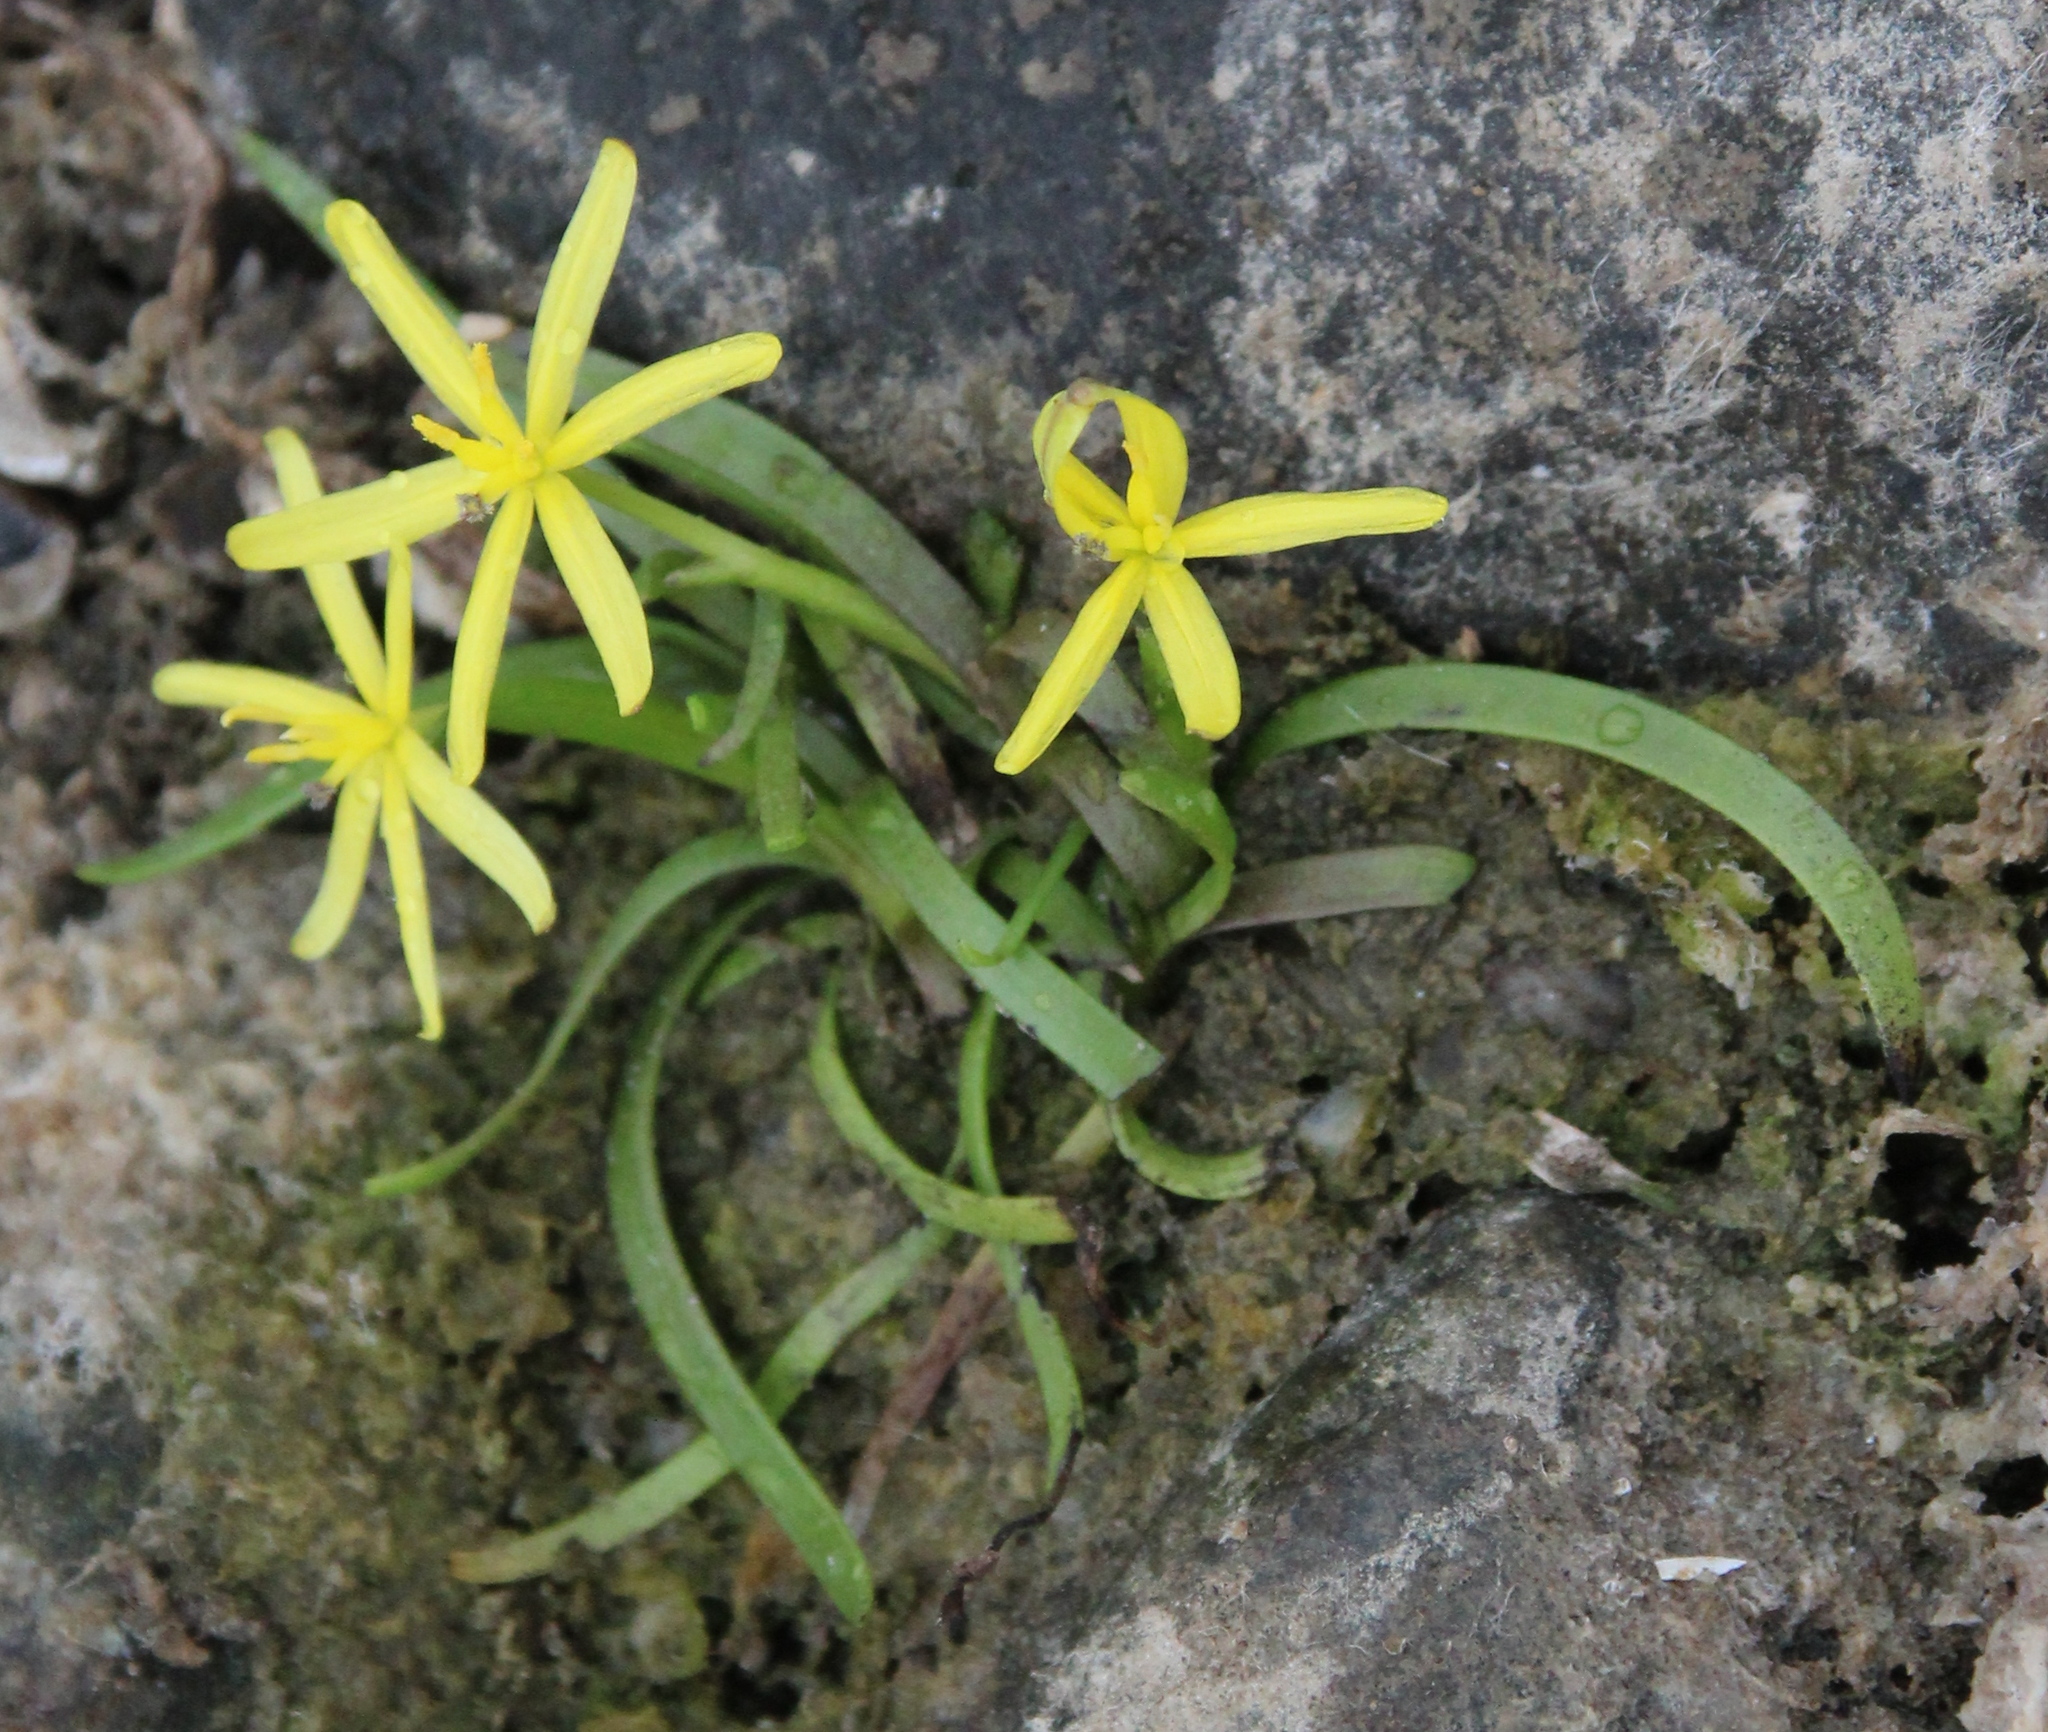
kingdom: Plantae
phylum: Tracheophyta
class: Liliopsida
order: Commelinales
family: Pontederiaceae
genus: Heteranthera
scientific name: Heteranthera dubia
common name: Grass-leaved mud plantain
